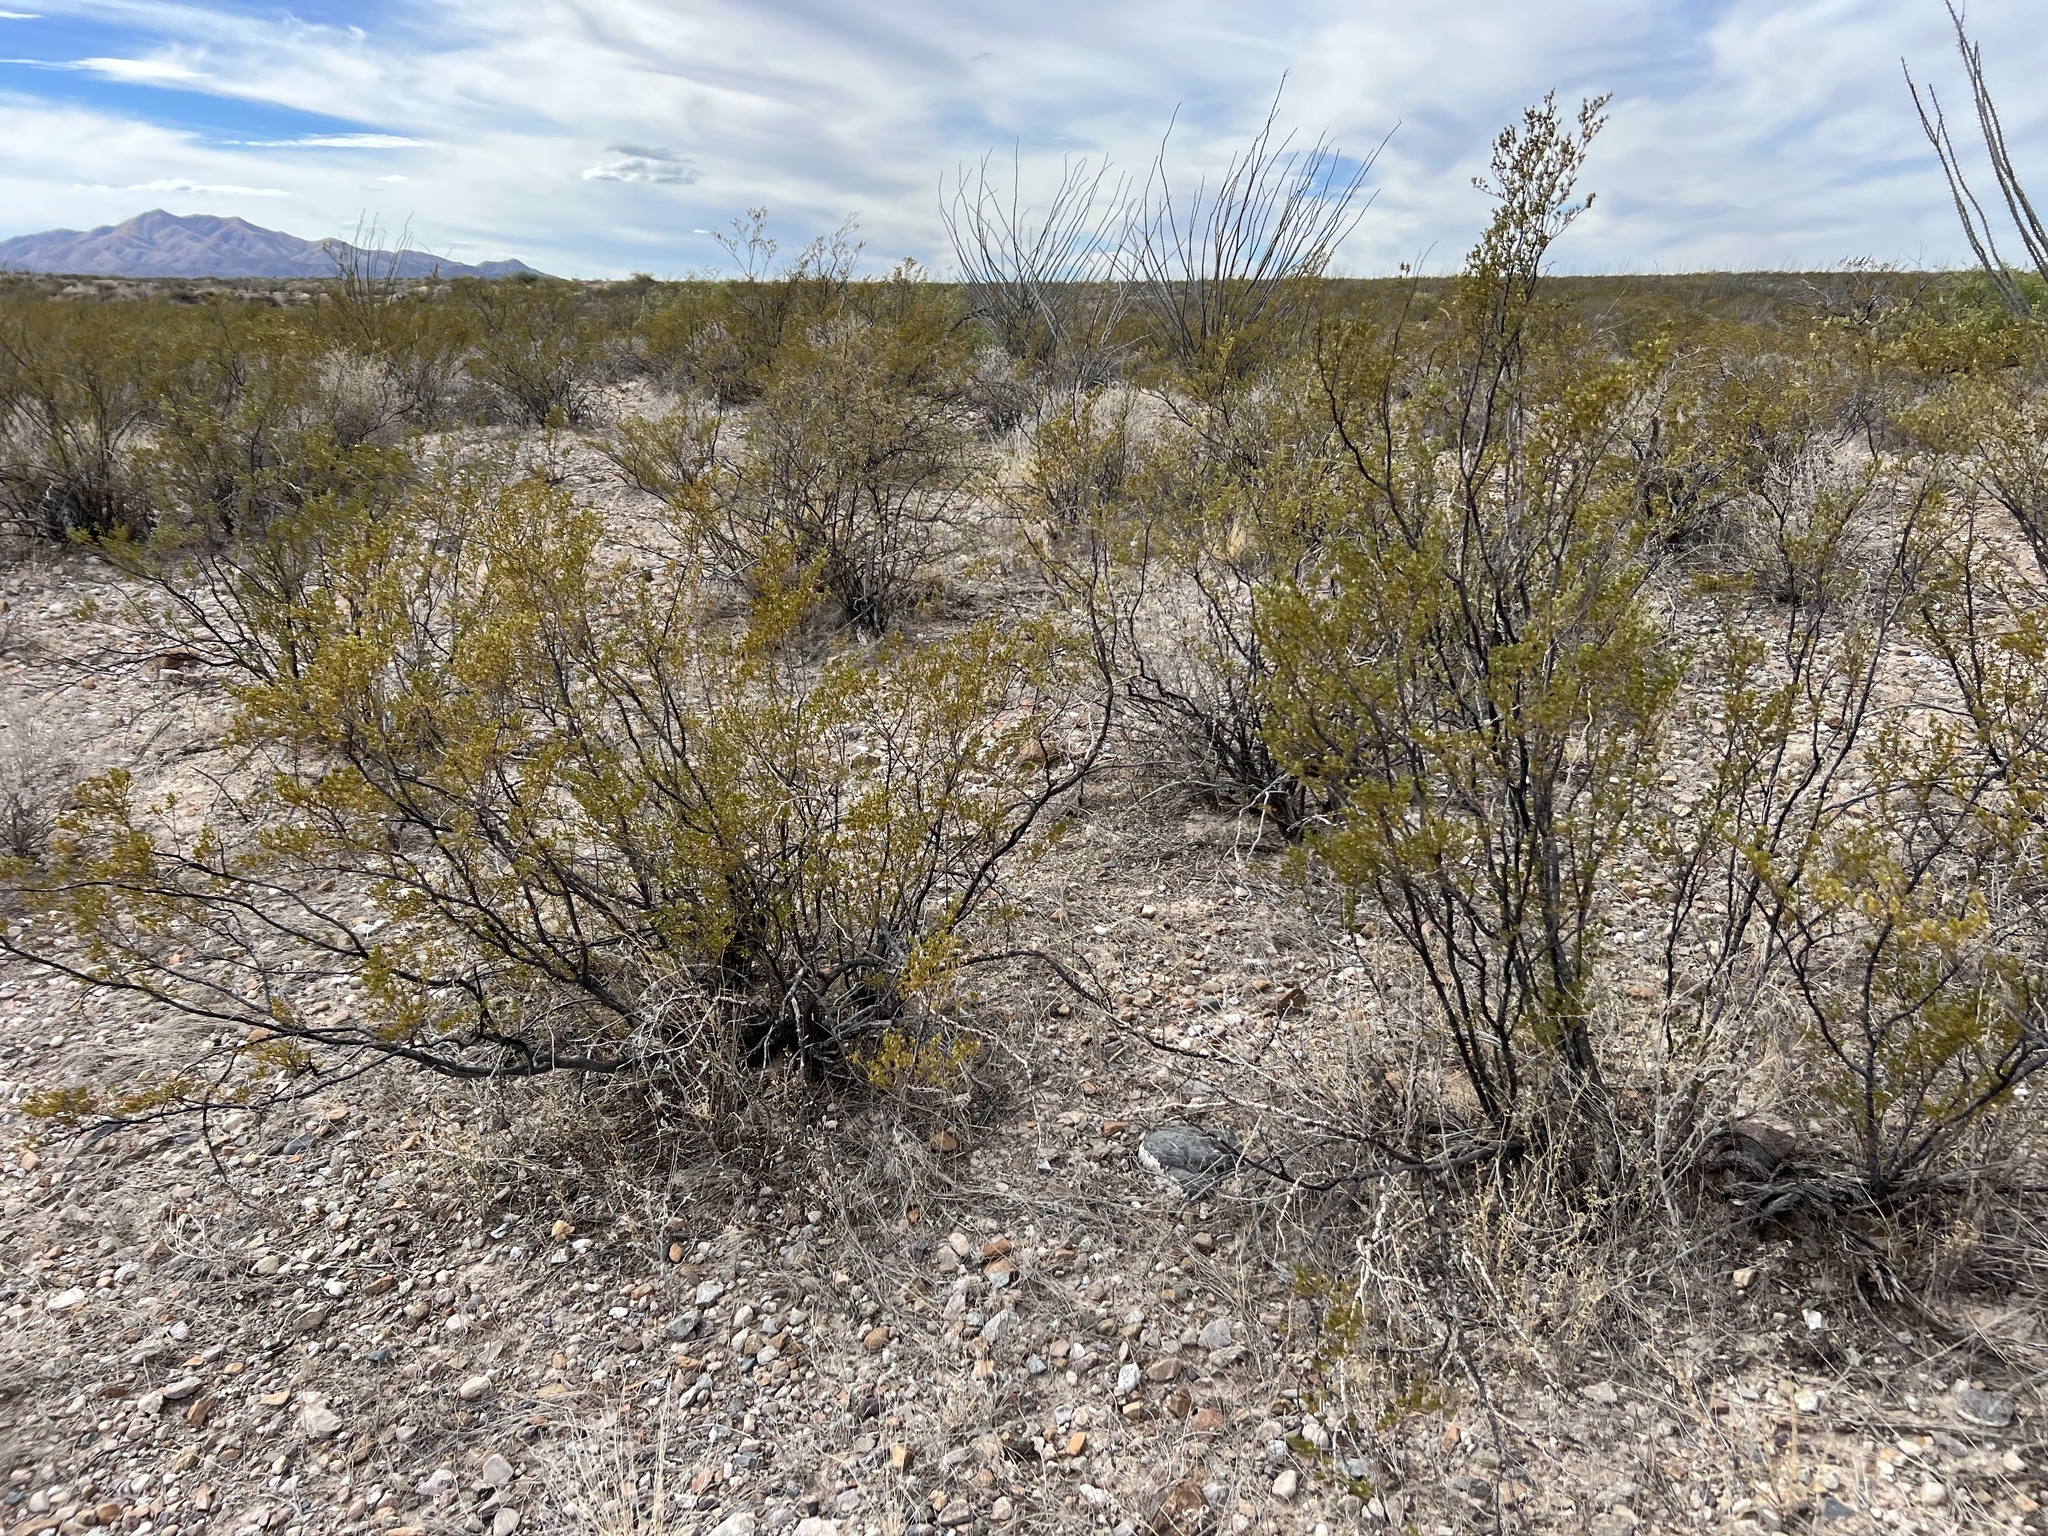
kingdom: Plantae
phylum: Tracheophyta
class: Magnoliopsida
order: Zygophyllales
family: Zygophyllaceae
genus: Larrea
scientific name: Larrea tridentata
